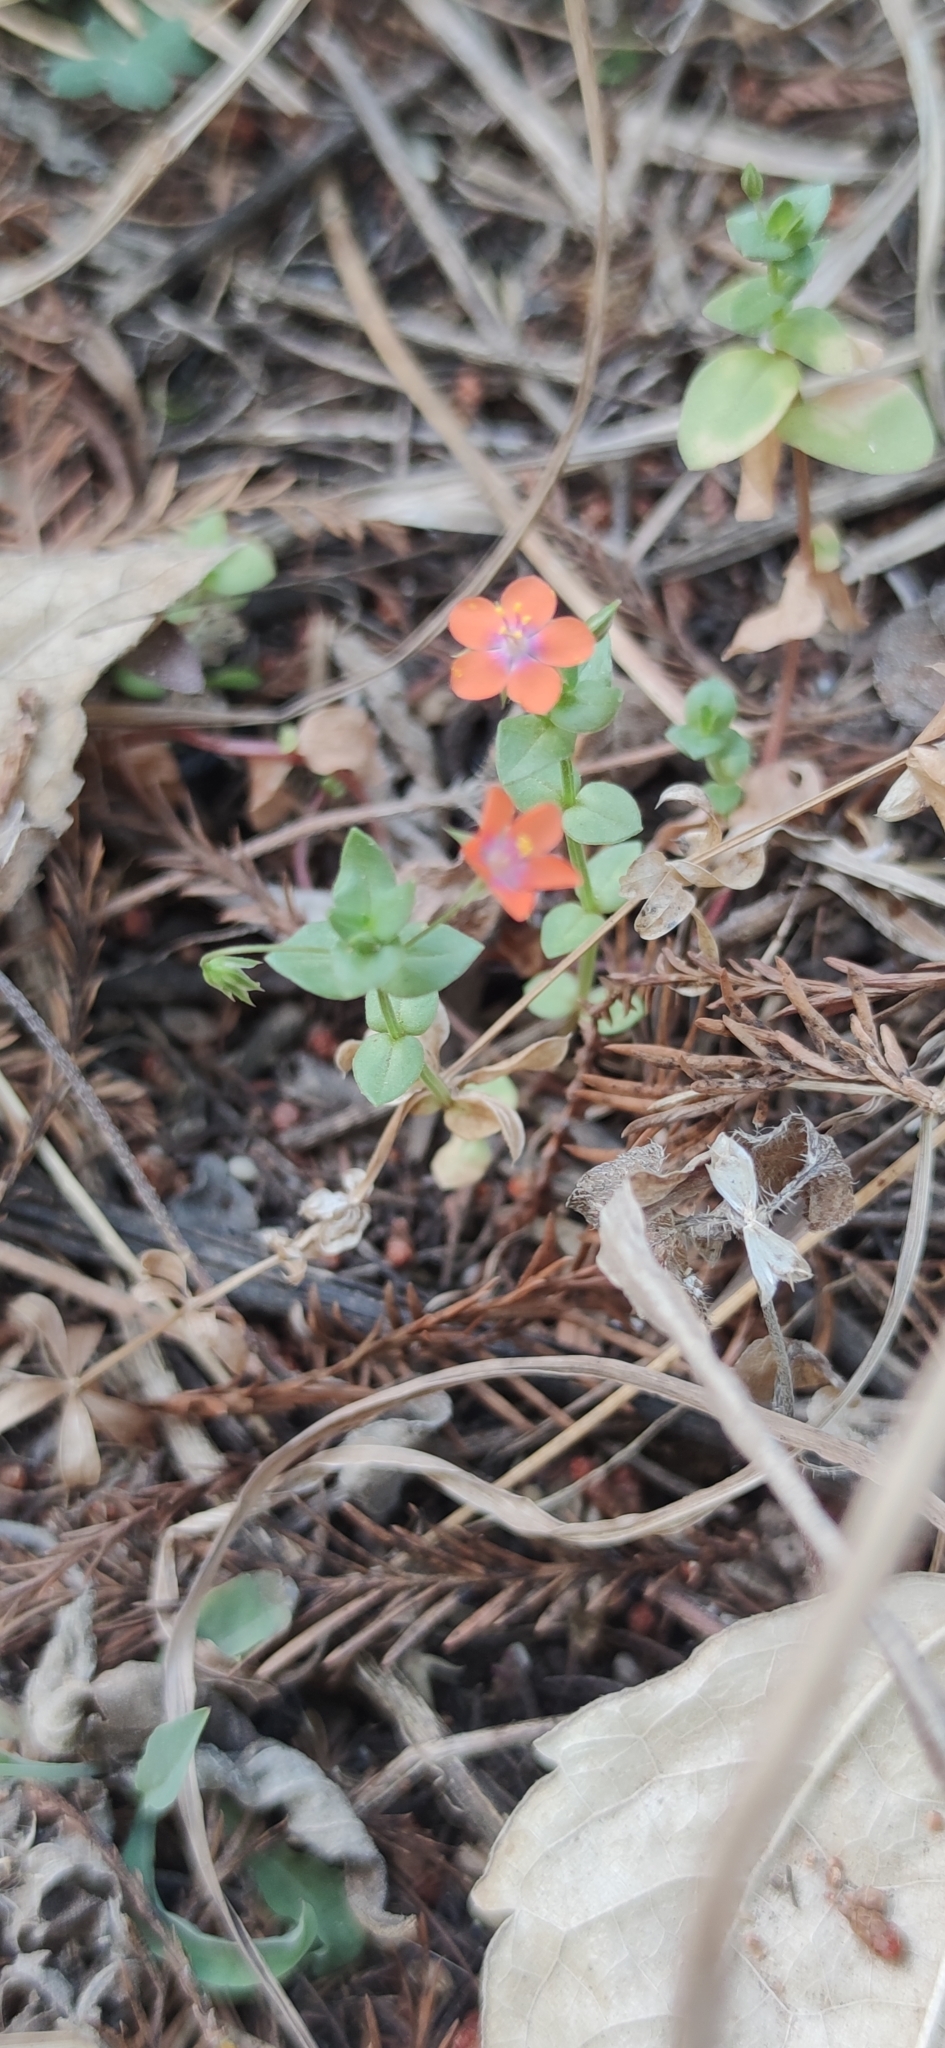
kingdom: Plantae
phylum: Tracheophyta
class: Magnoliopsida
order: Ericales
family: Primulaceae
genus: Lysimachia
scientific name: Lysimachia arvensis
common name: Scarlet pimpernel
